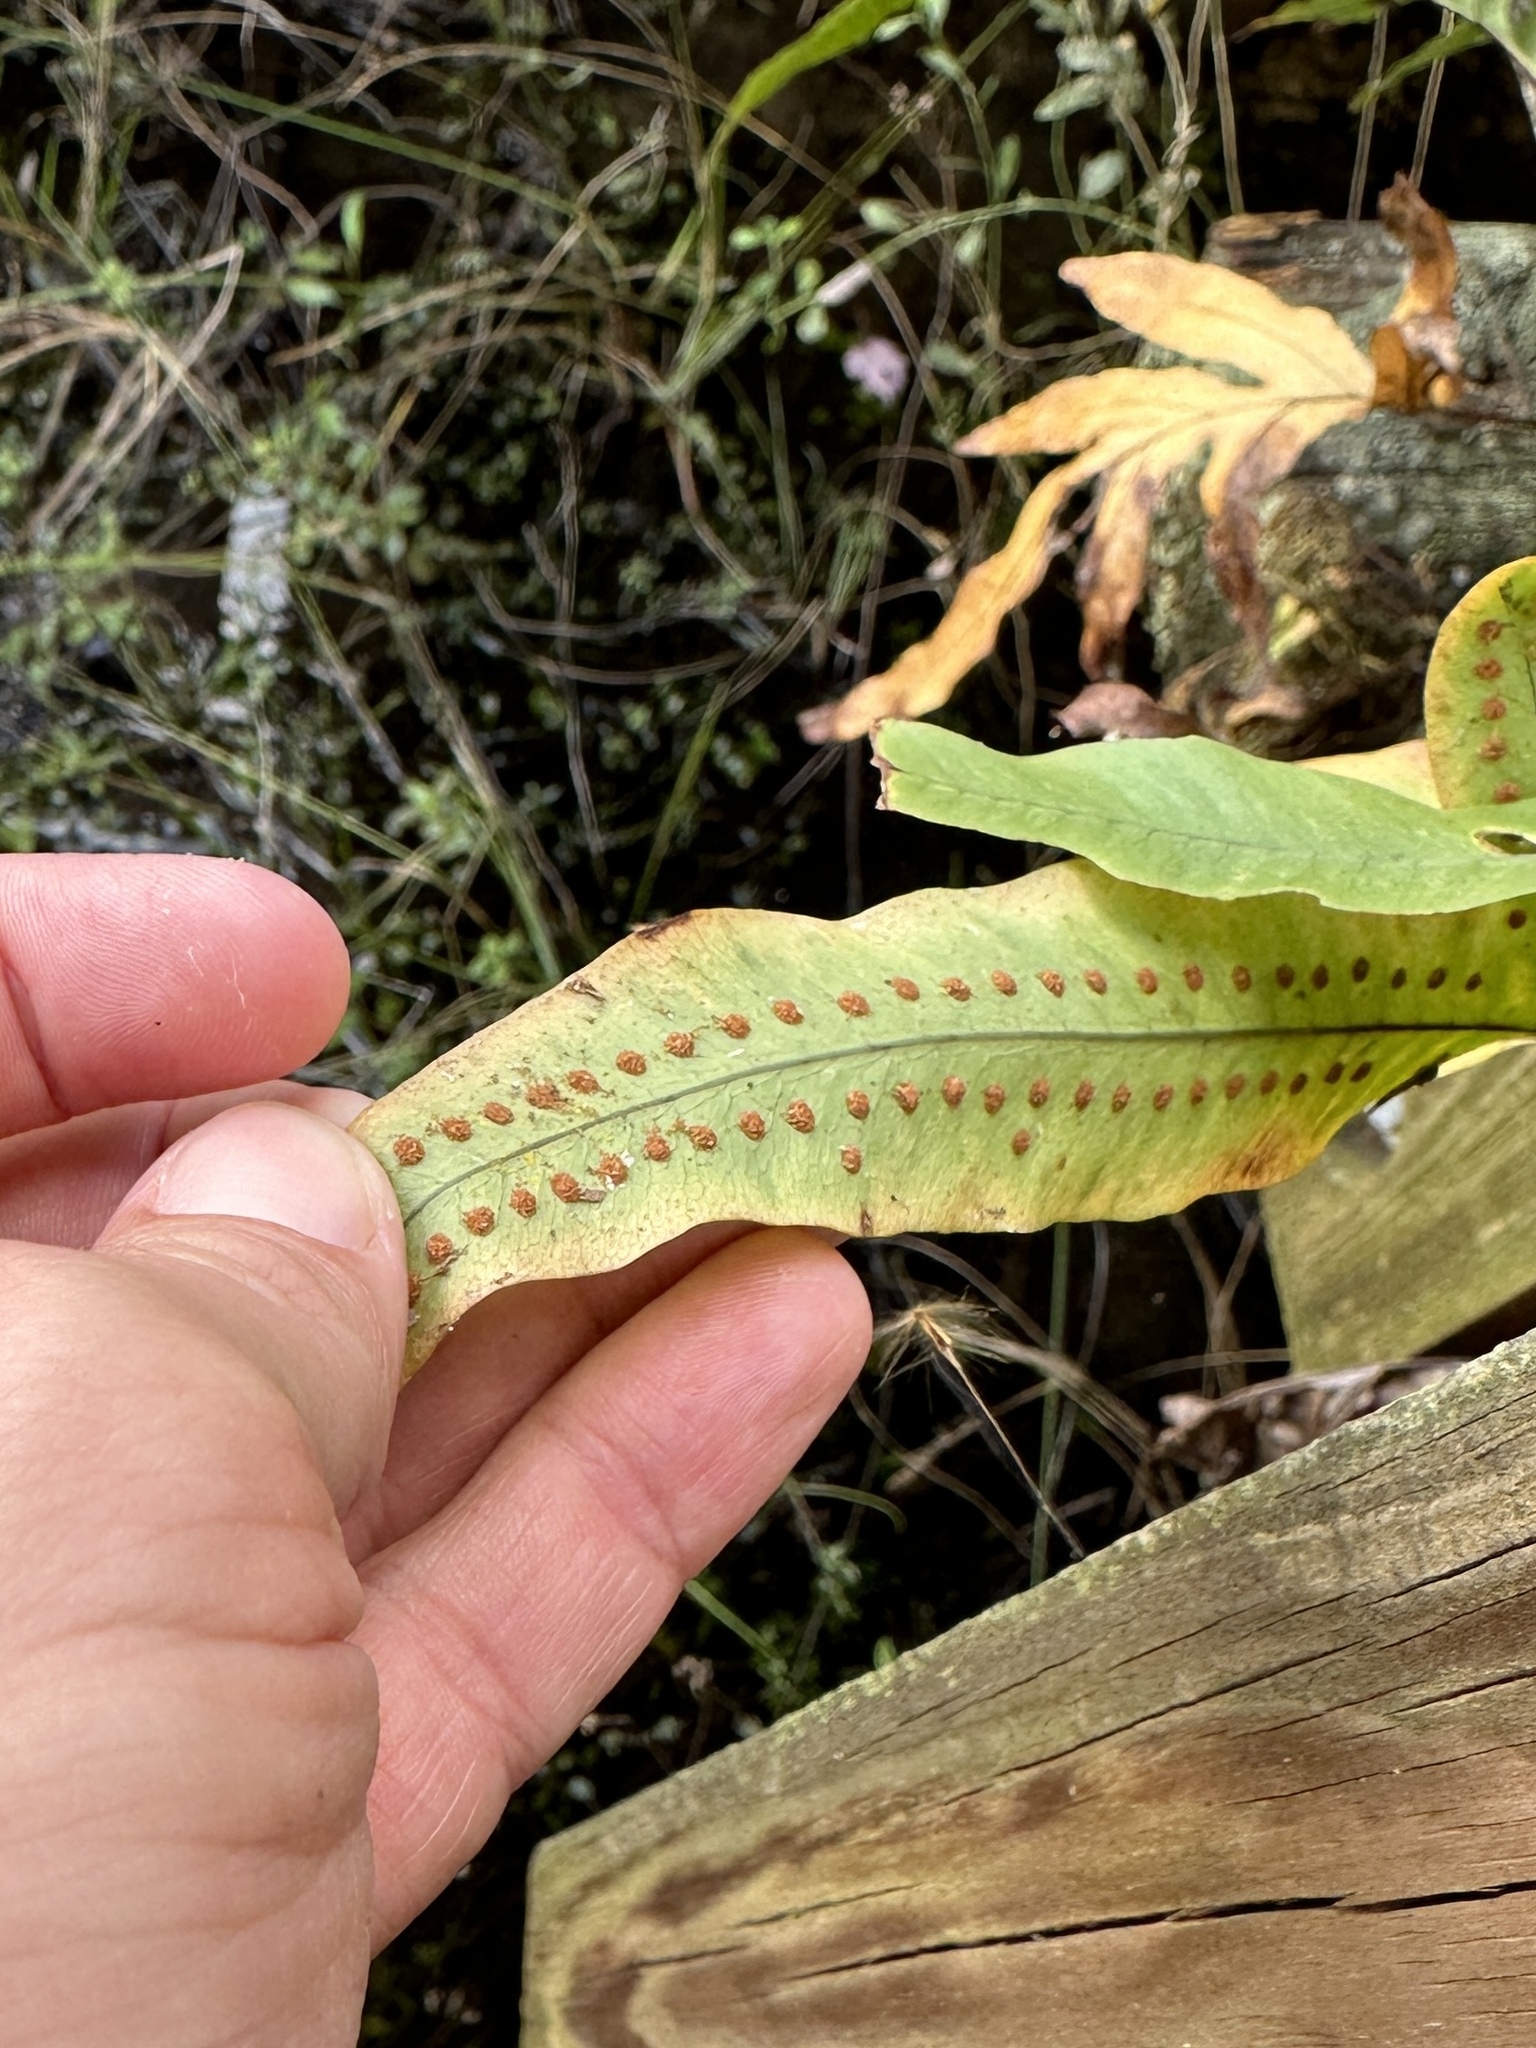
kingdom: Plantae
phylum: Tracheophyta
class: Polypodiopsida
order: Polypodiales
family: Polypodiaceae
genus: Phlebodium
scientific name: Phlebodium aureum
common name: Gold-foot fern
